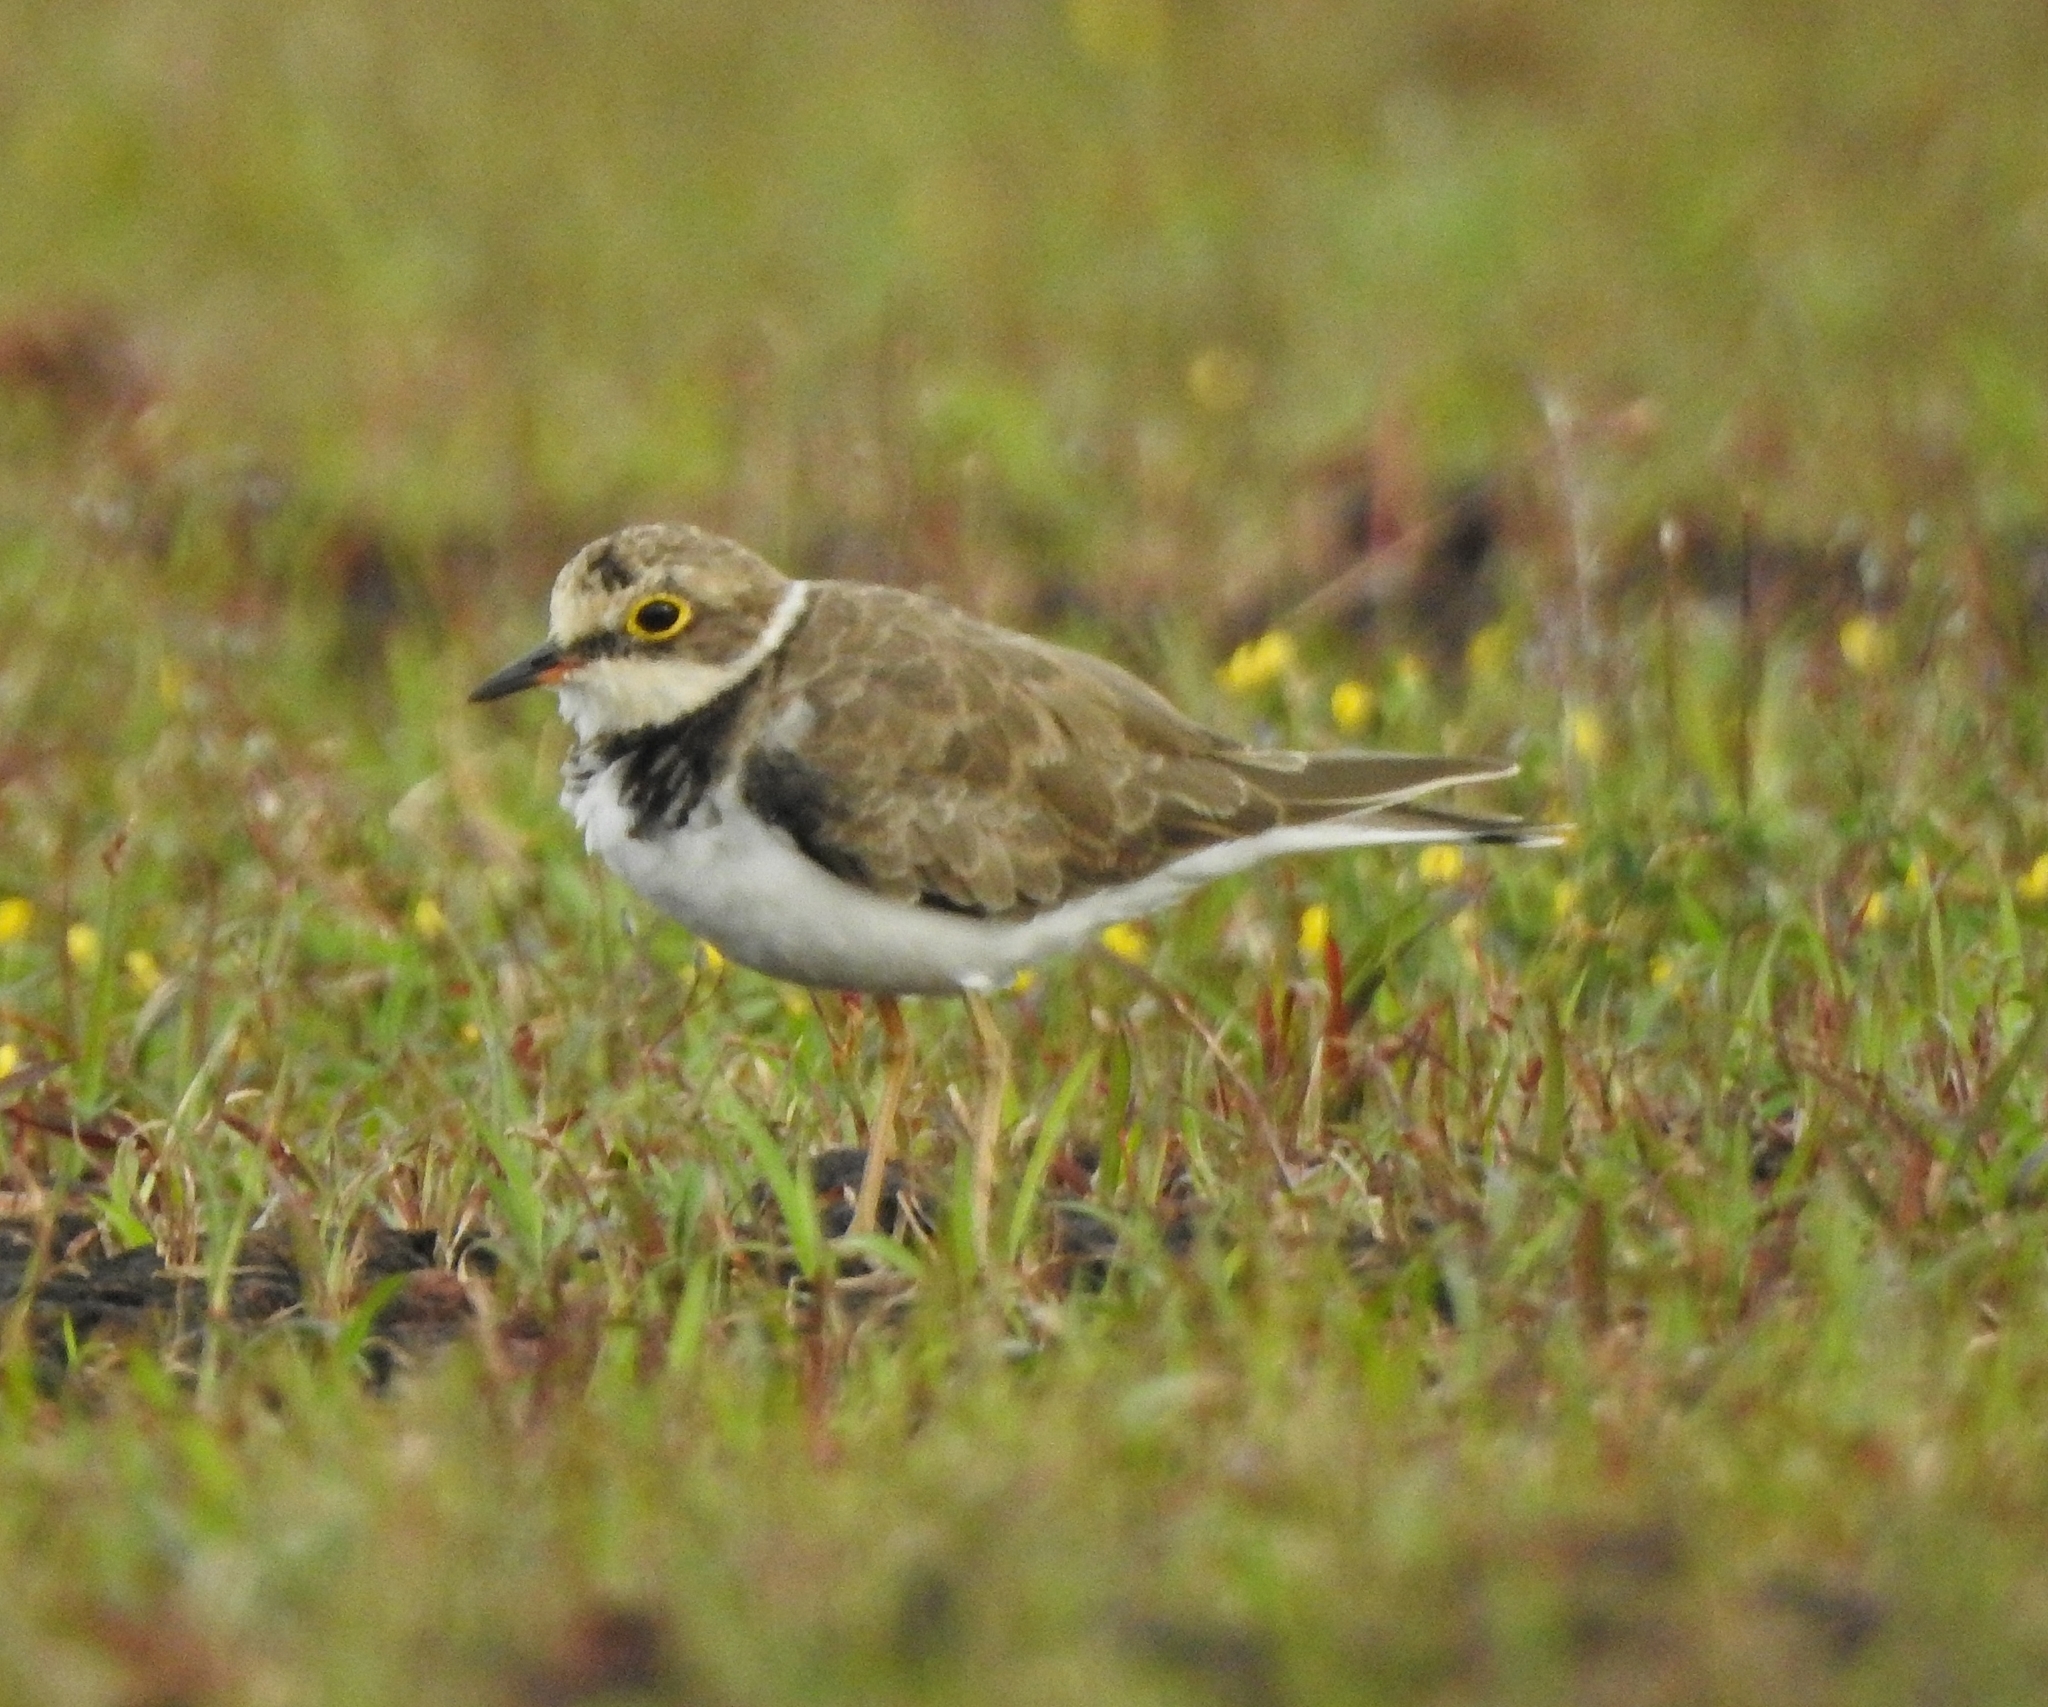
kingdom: Animalia
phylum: Chordata
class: Aves
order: Charadriiformes
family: Charadriidae
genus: Charadrius
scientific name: Charadrius dubius
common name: Little ringed plover
